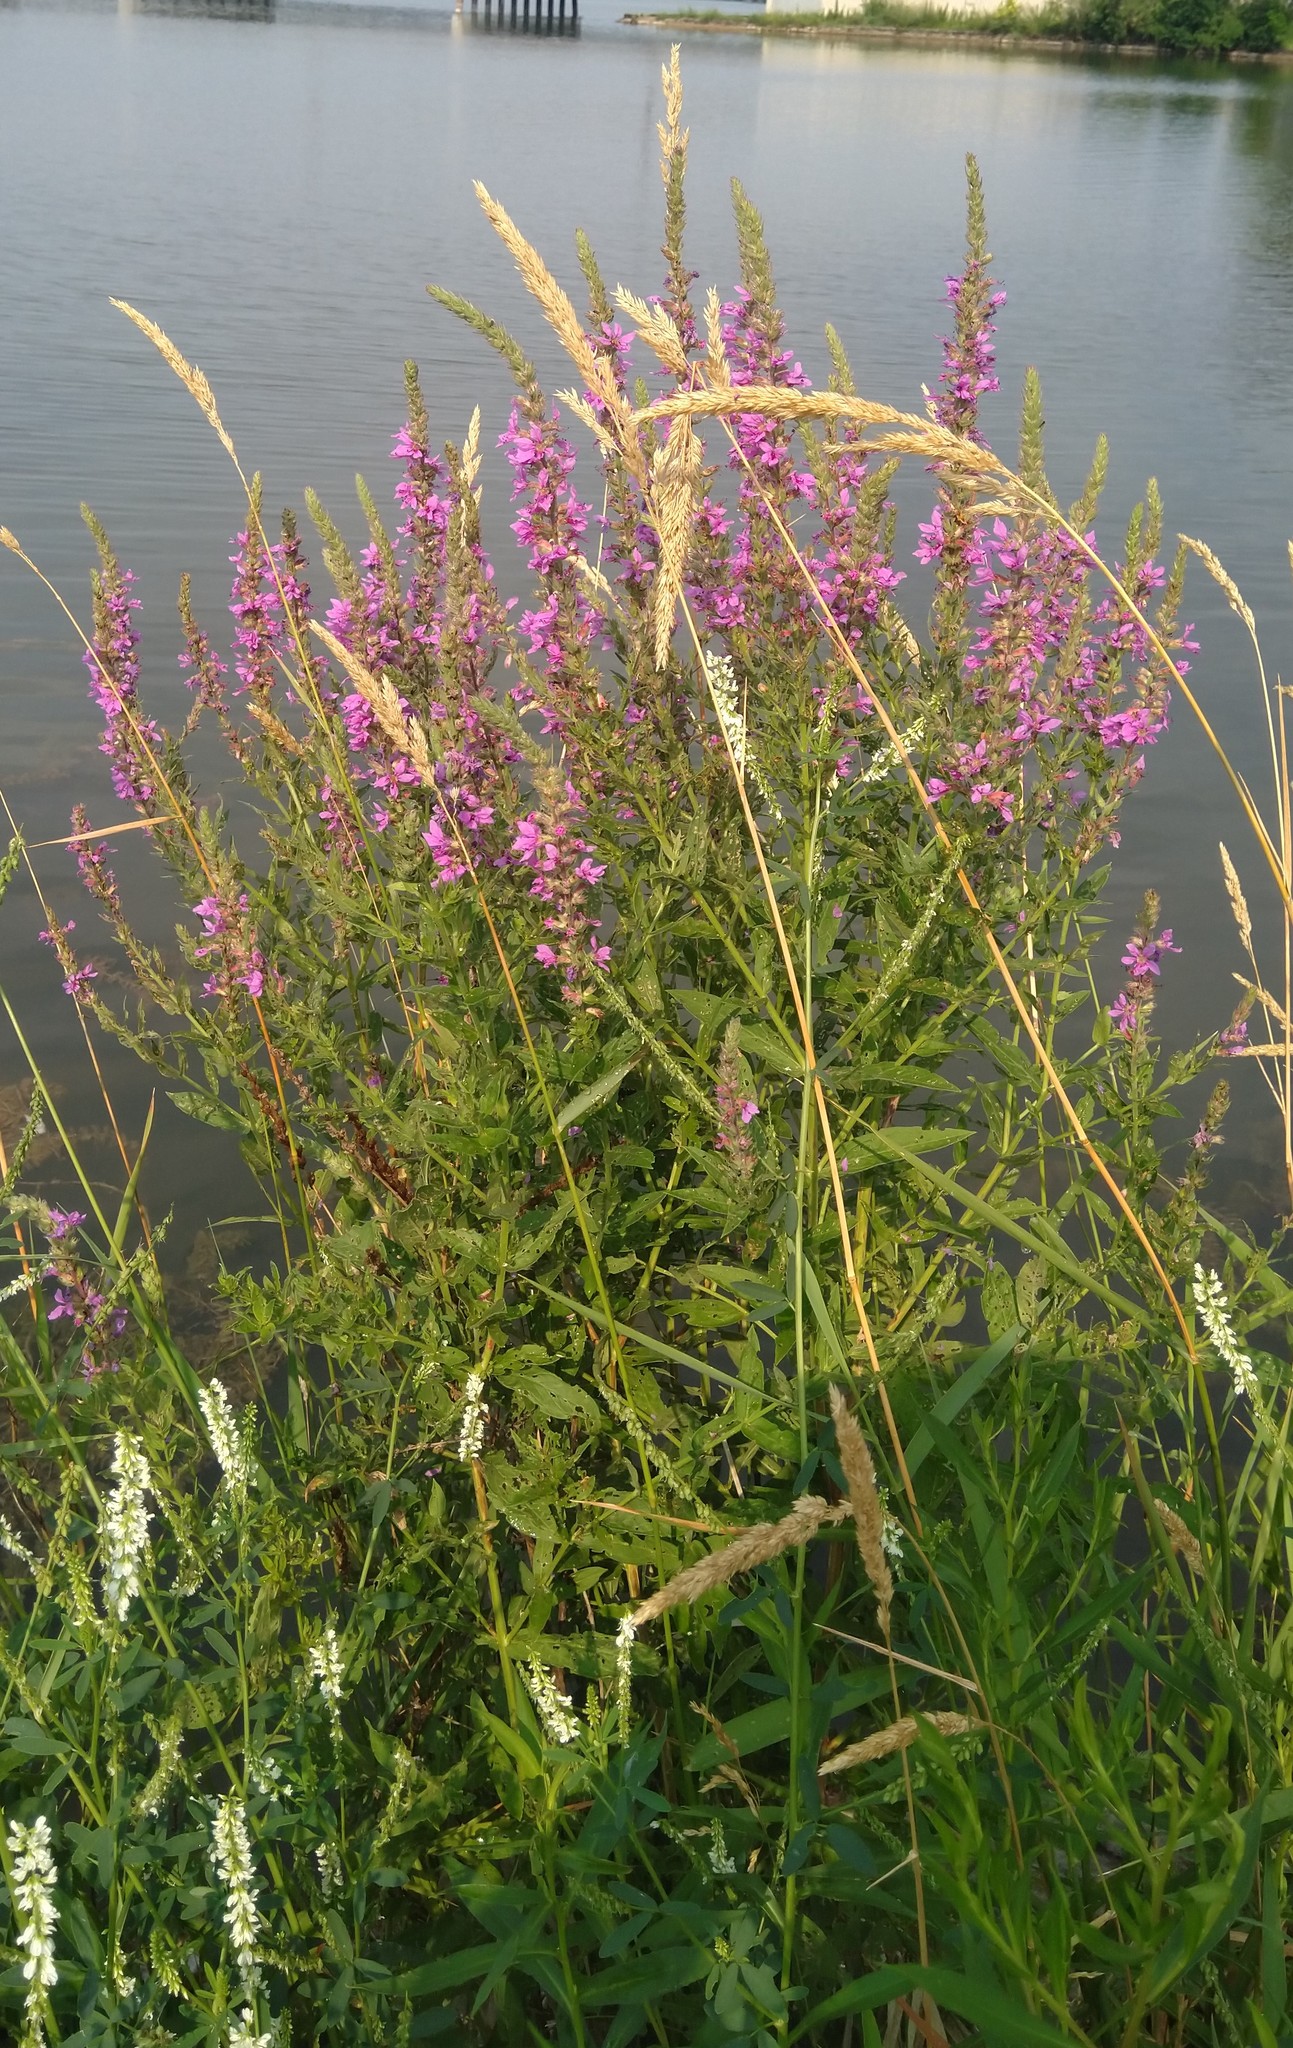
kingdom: Plantae
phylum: Tracheophyta
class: Magnoliopsida
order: Myrtales
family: Lythraceae
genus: Lythrum
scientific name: Lythrum salicaria
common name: Purple loosestrife
